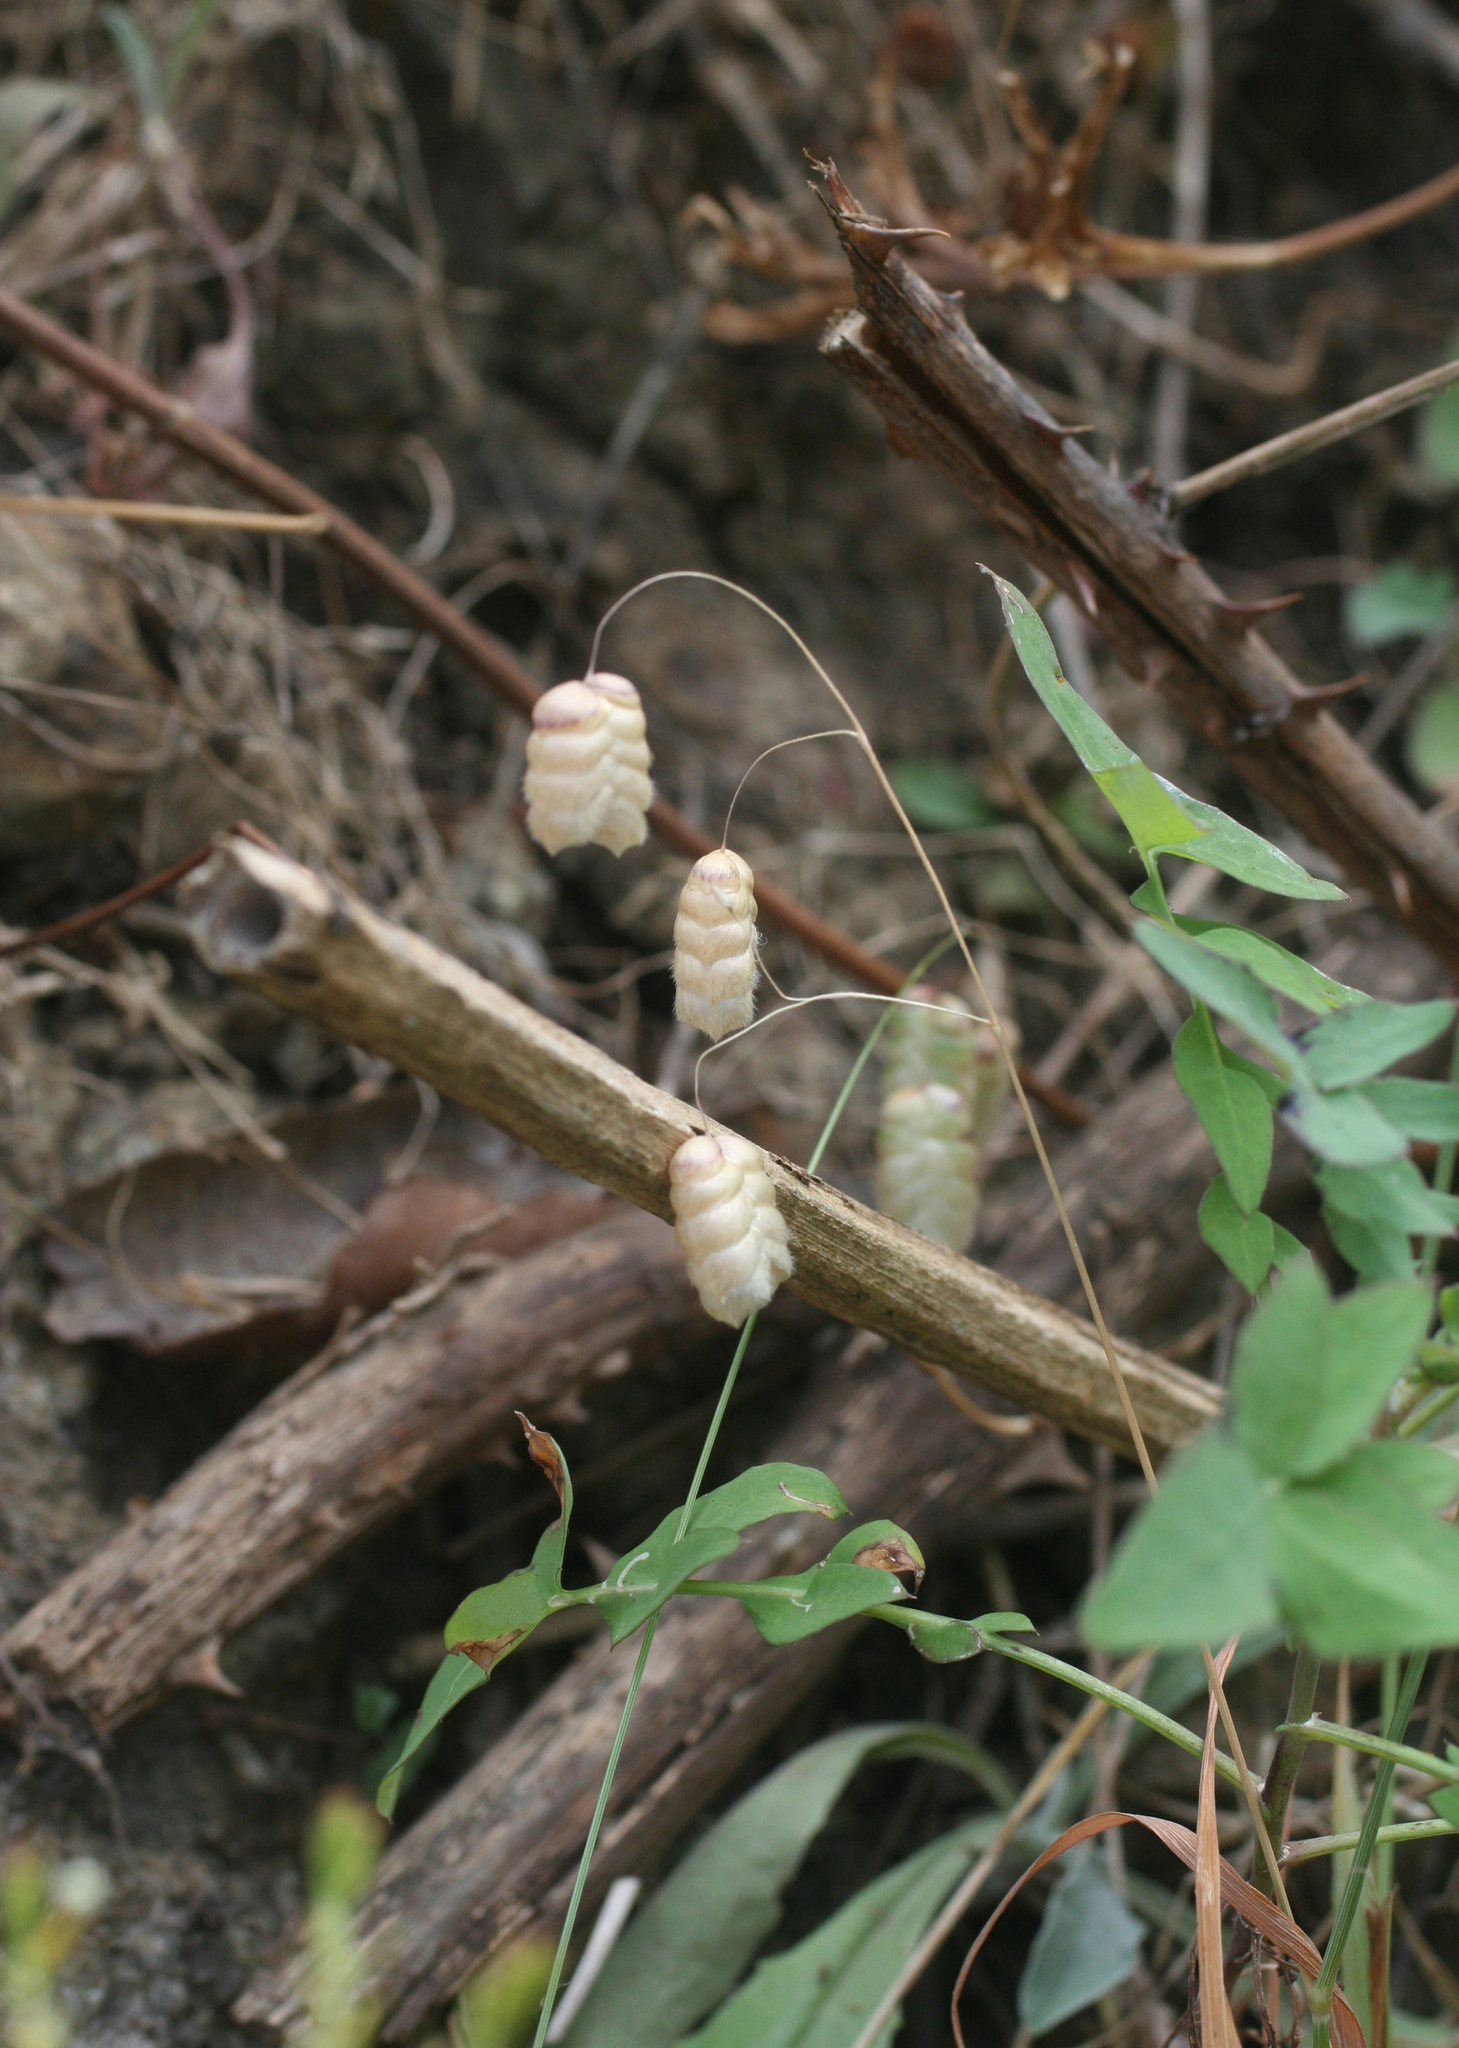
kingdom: Plantae
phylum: Tracheophyta
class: Liliopsida
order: Poales
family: Poaceae
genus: Briza
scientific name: Briza maxima
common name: Big quakinggrass
